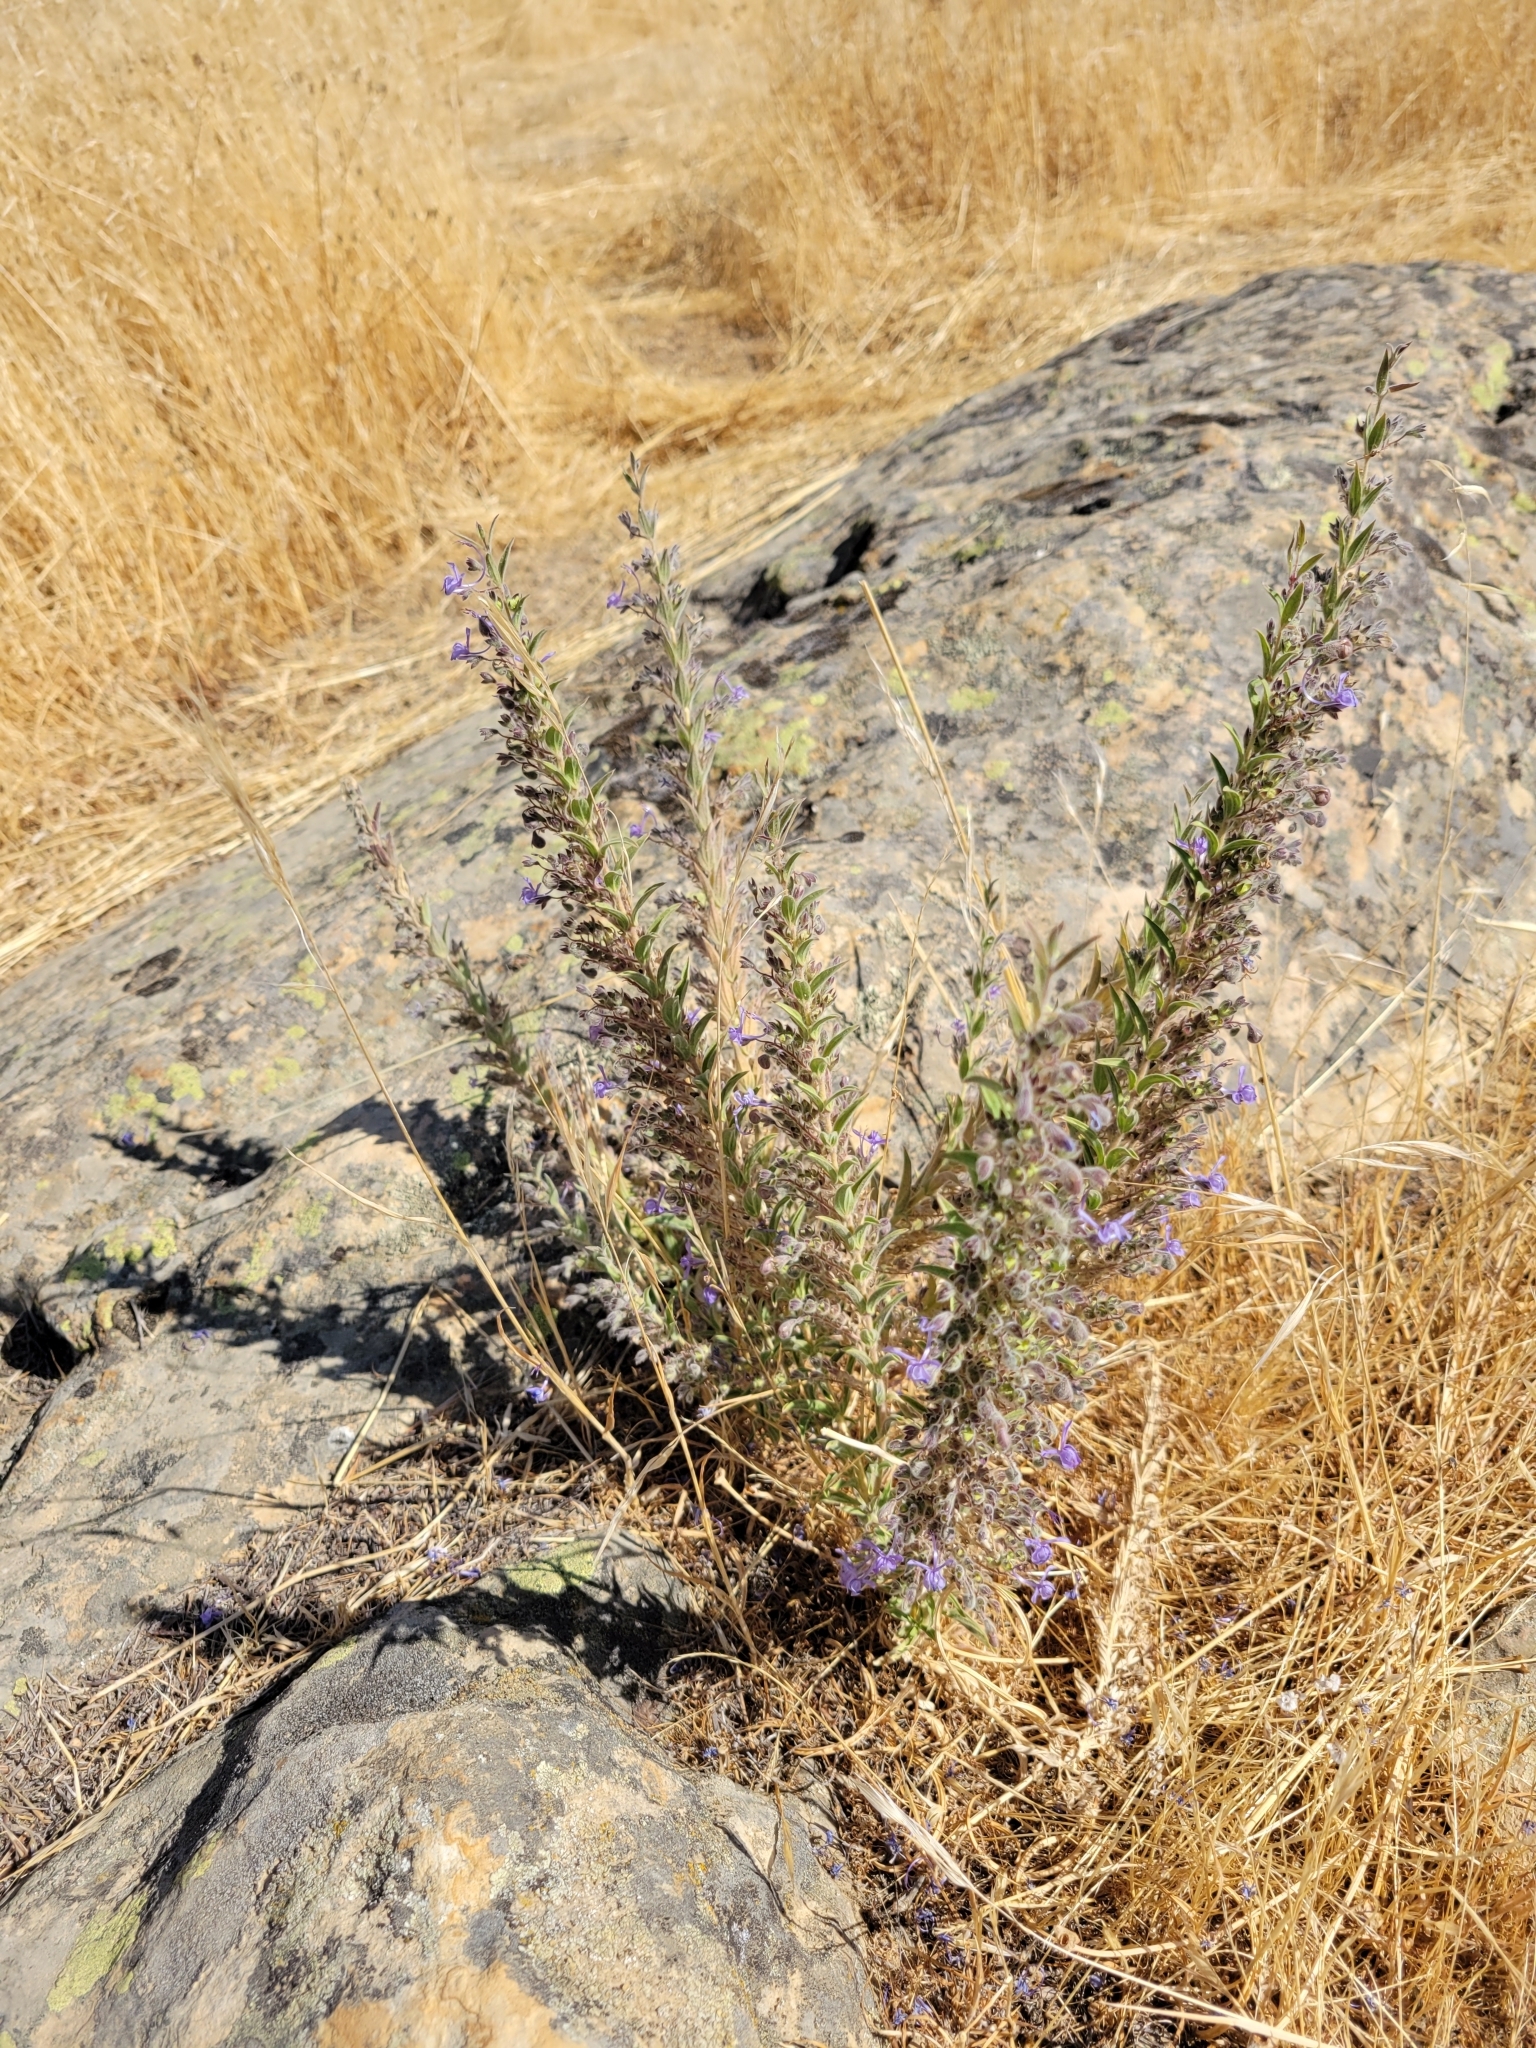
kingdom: Plantae
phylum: Tracheophyta
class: Magnoliopsida
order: Lamiales
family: Lamiaceae
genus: Trichostema
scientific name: Trichostema lanceolatum
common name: Vinegar-weed
